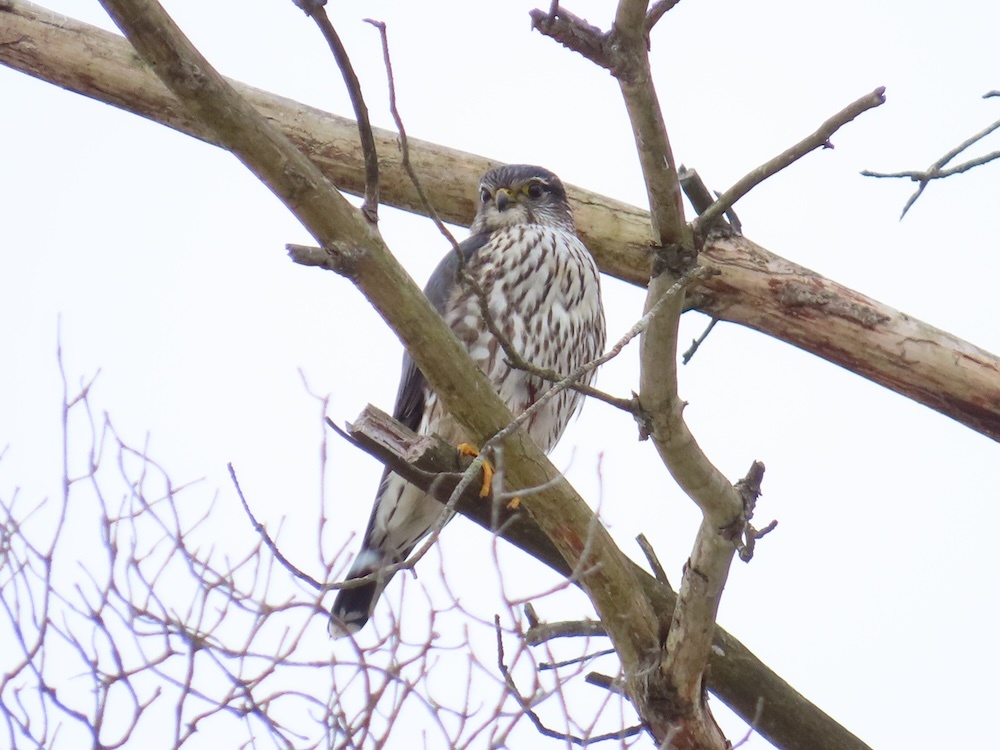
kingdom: Animalia
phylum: Chordata
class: Aves
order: Falconiformes
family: Falconidae
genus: Falco
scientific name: Falco columbarius
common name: Merlin
